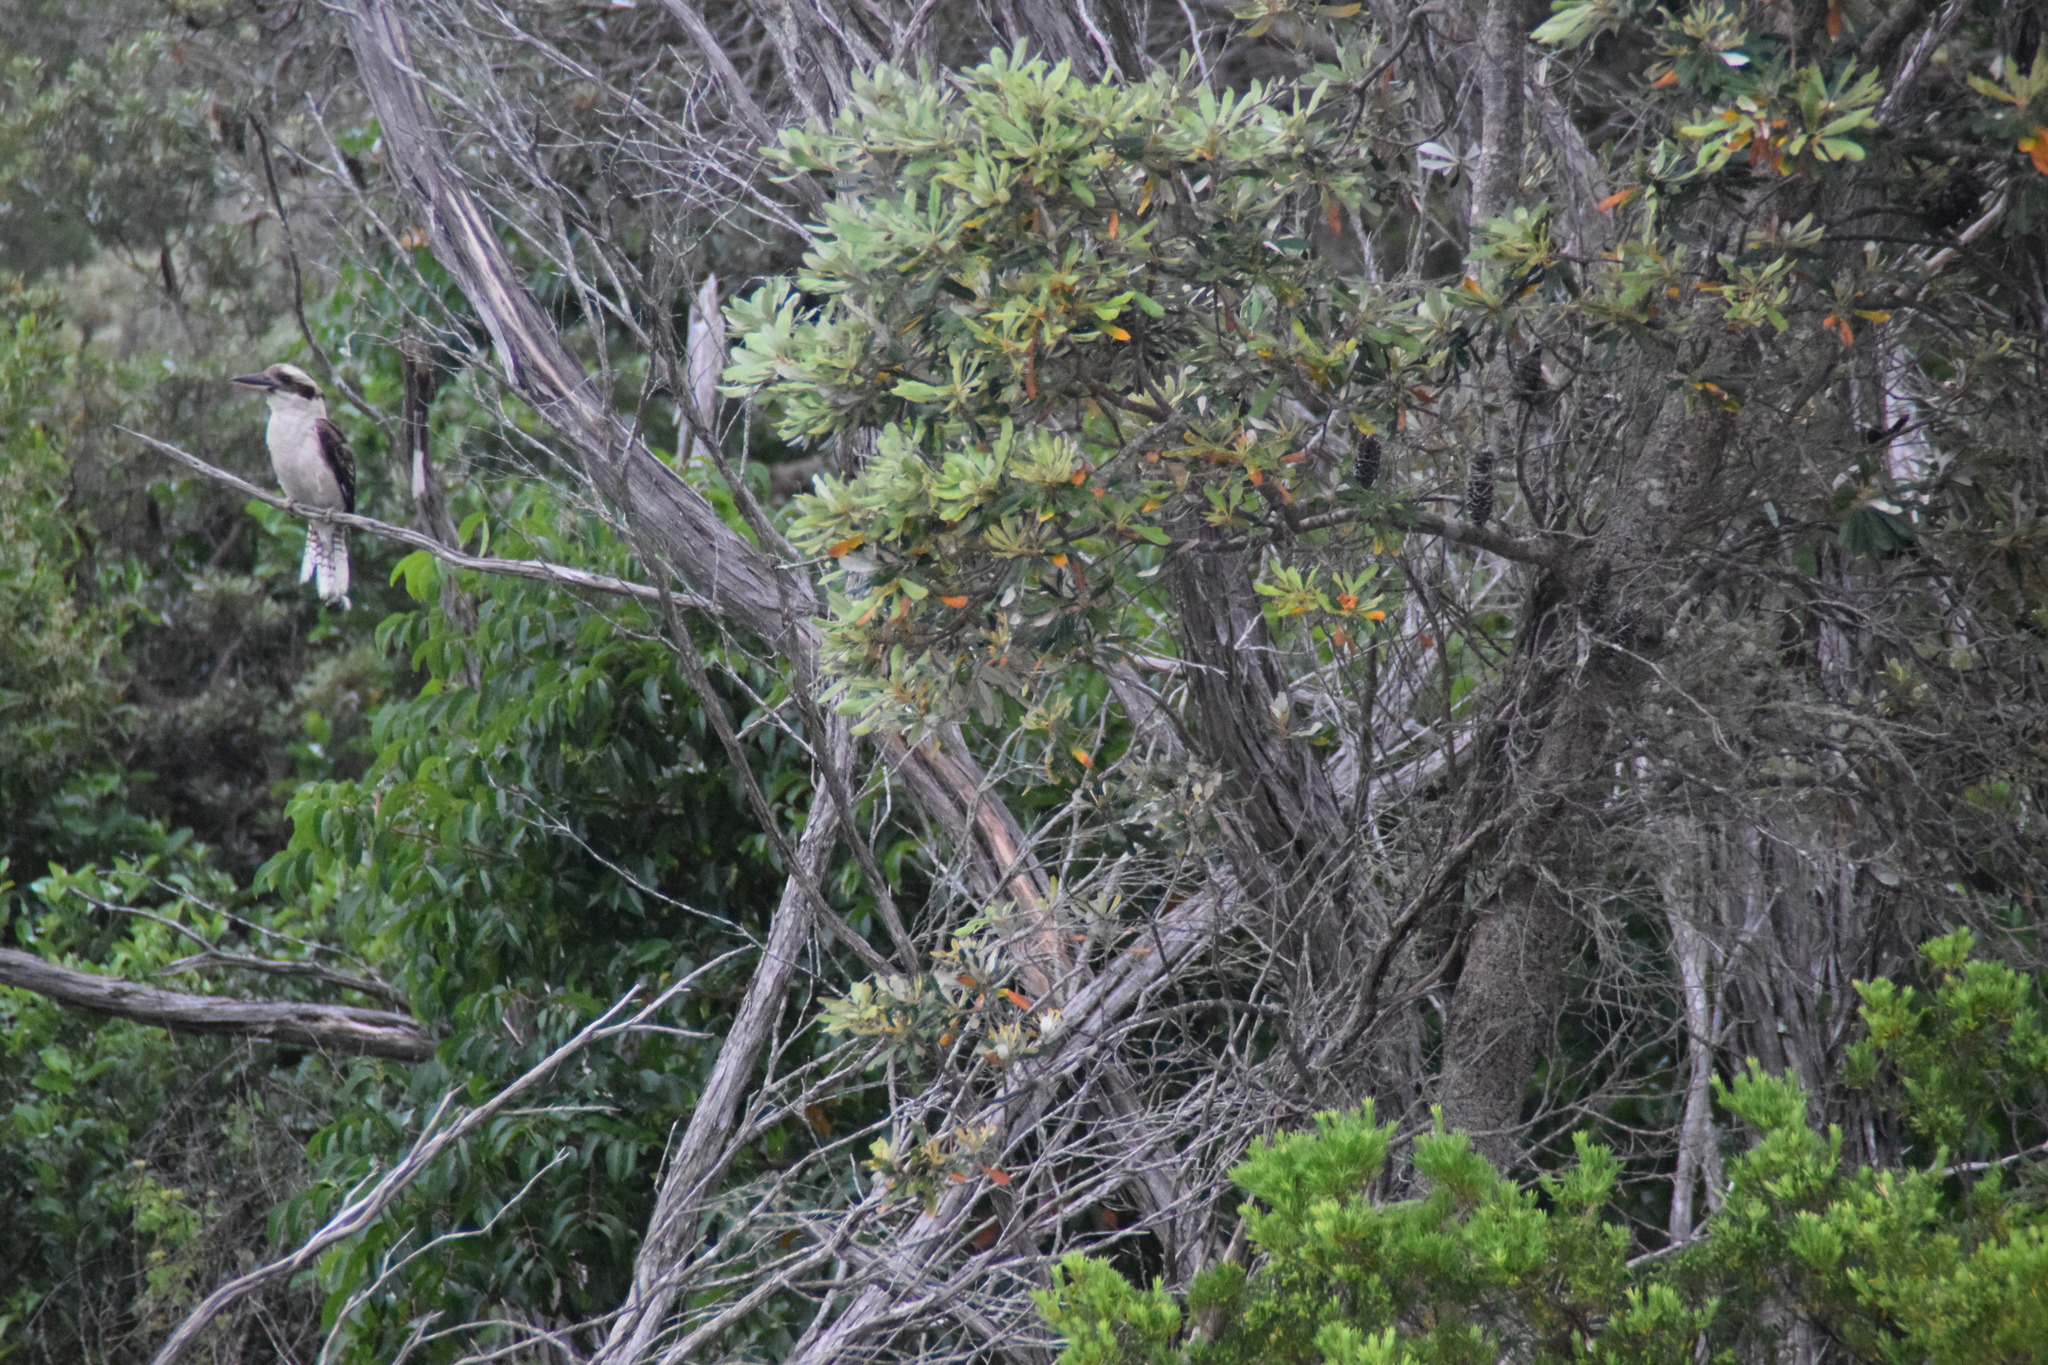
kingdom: Animalia
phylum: Chordata
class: Aves
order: Coraciiformes
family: Alcedinidae
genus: Dacelo
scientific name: Dacelo novaeguineae
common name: Laughing kookaburra
